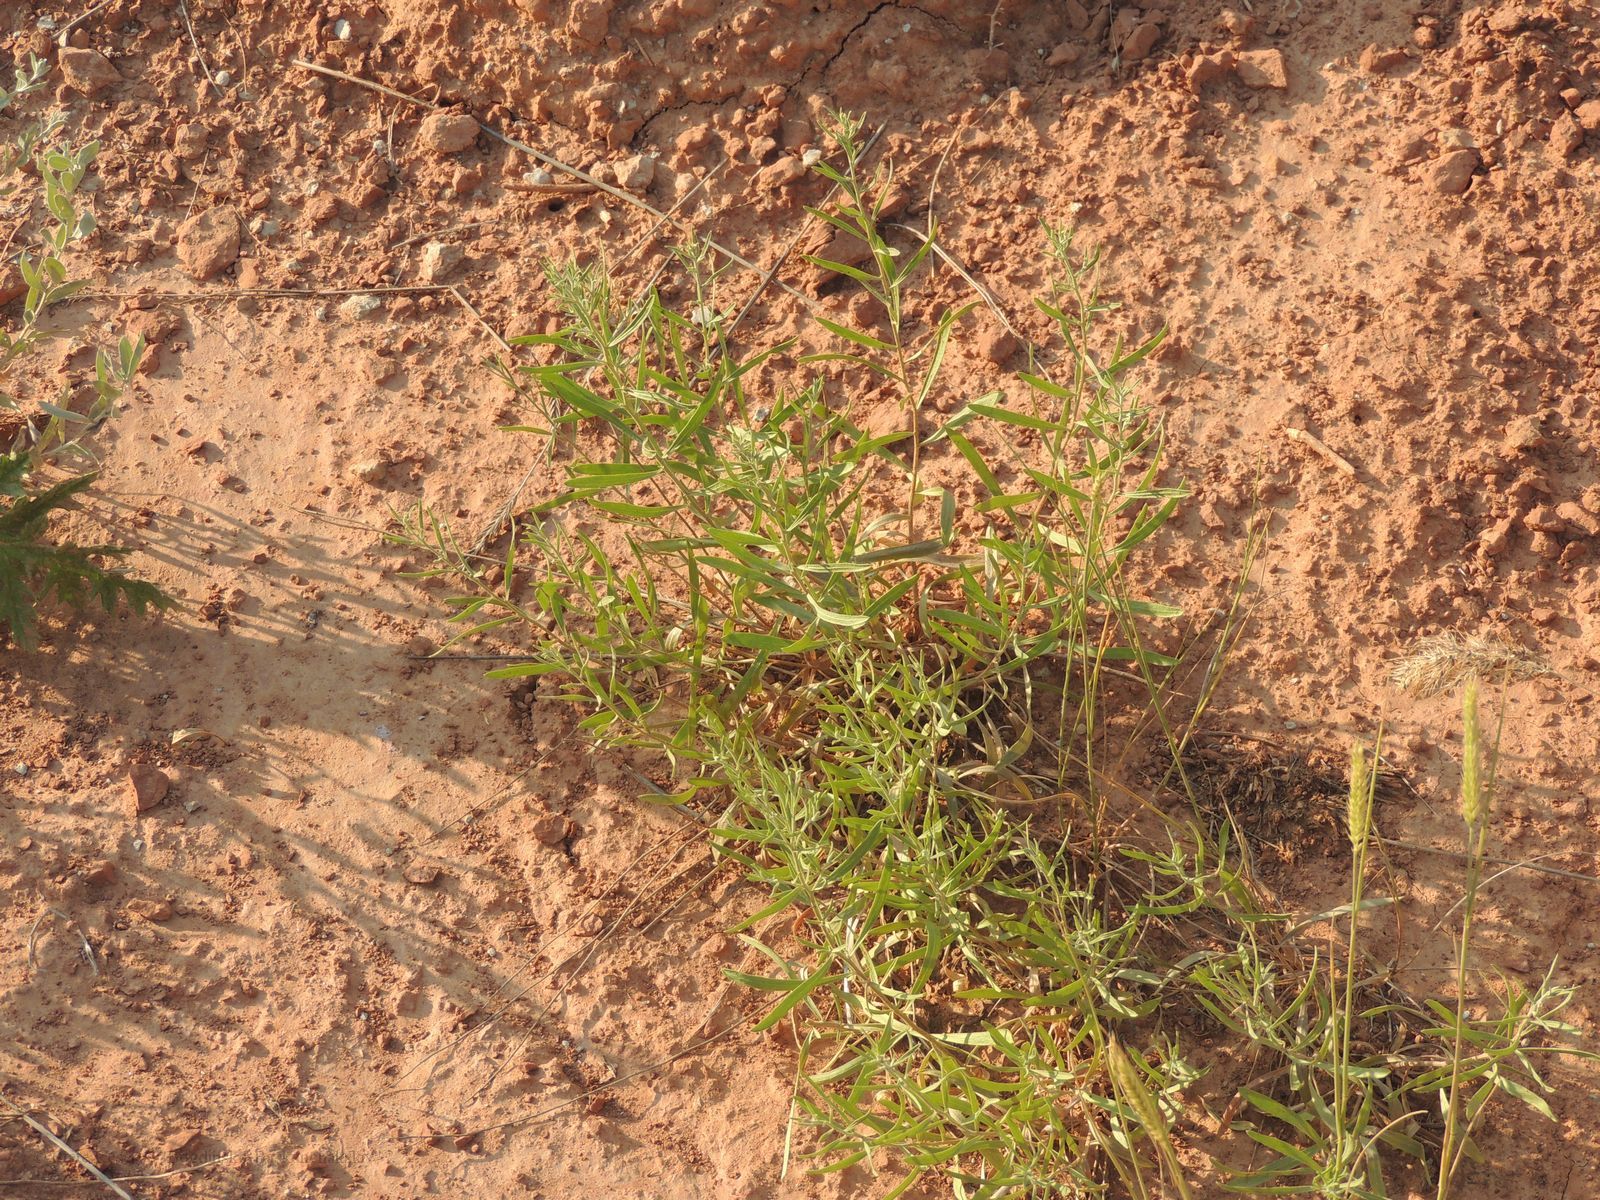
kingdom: Plantae
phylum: Tracheophyta
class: Magnoliopsida
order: Asterales
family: Asteraceae
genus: Galatella
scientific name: Galatella sedifolia
